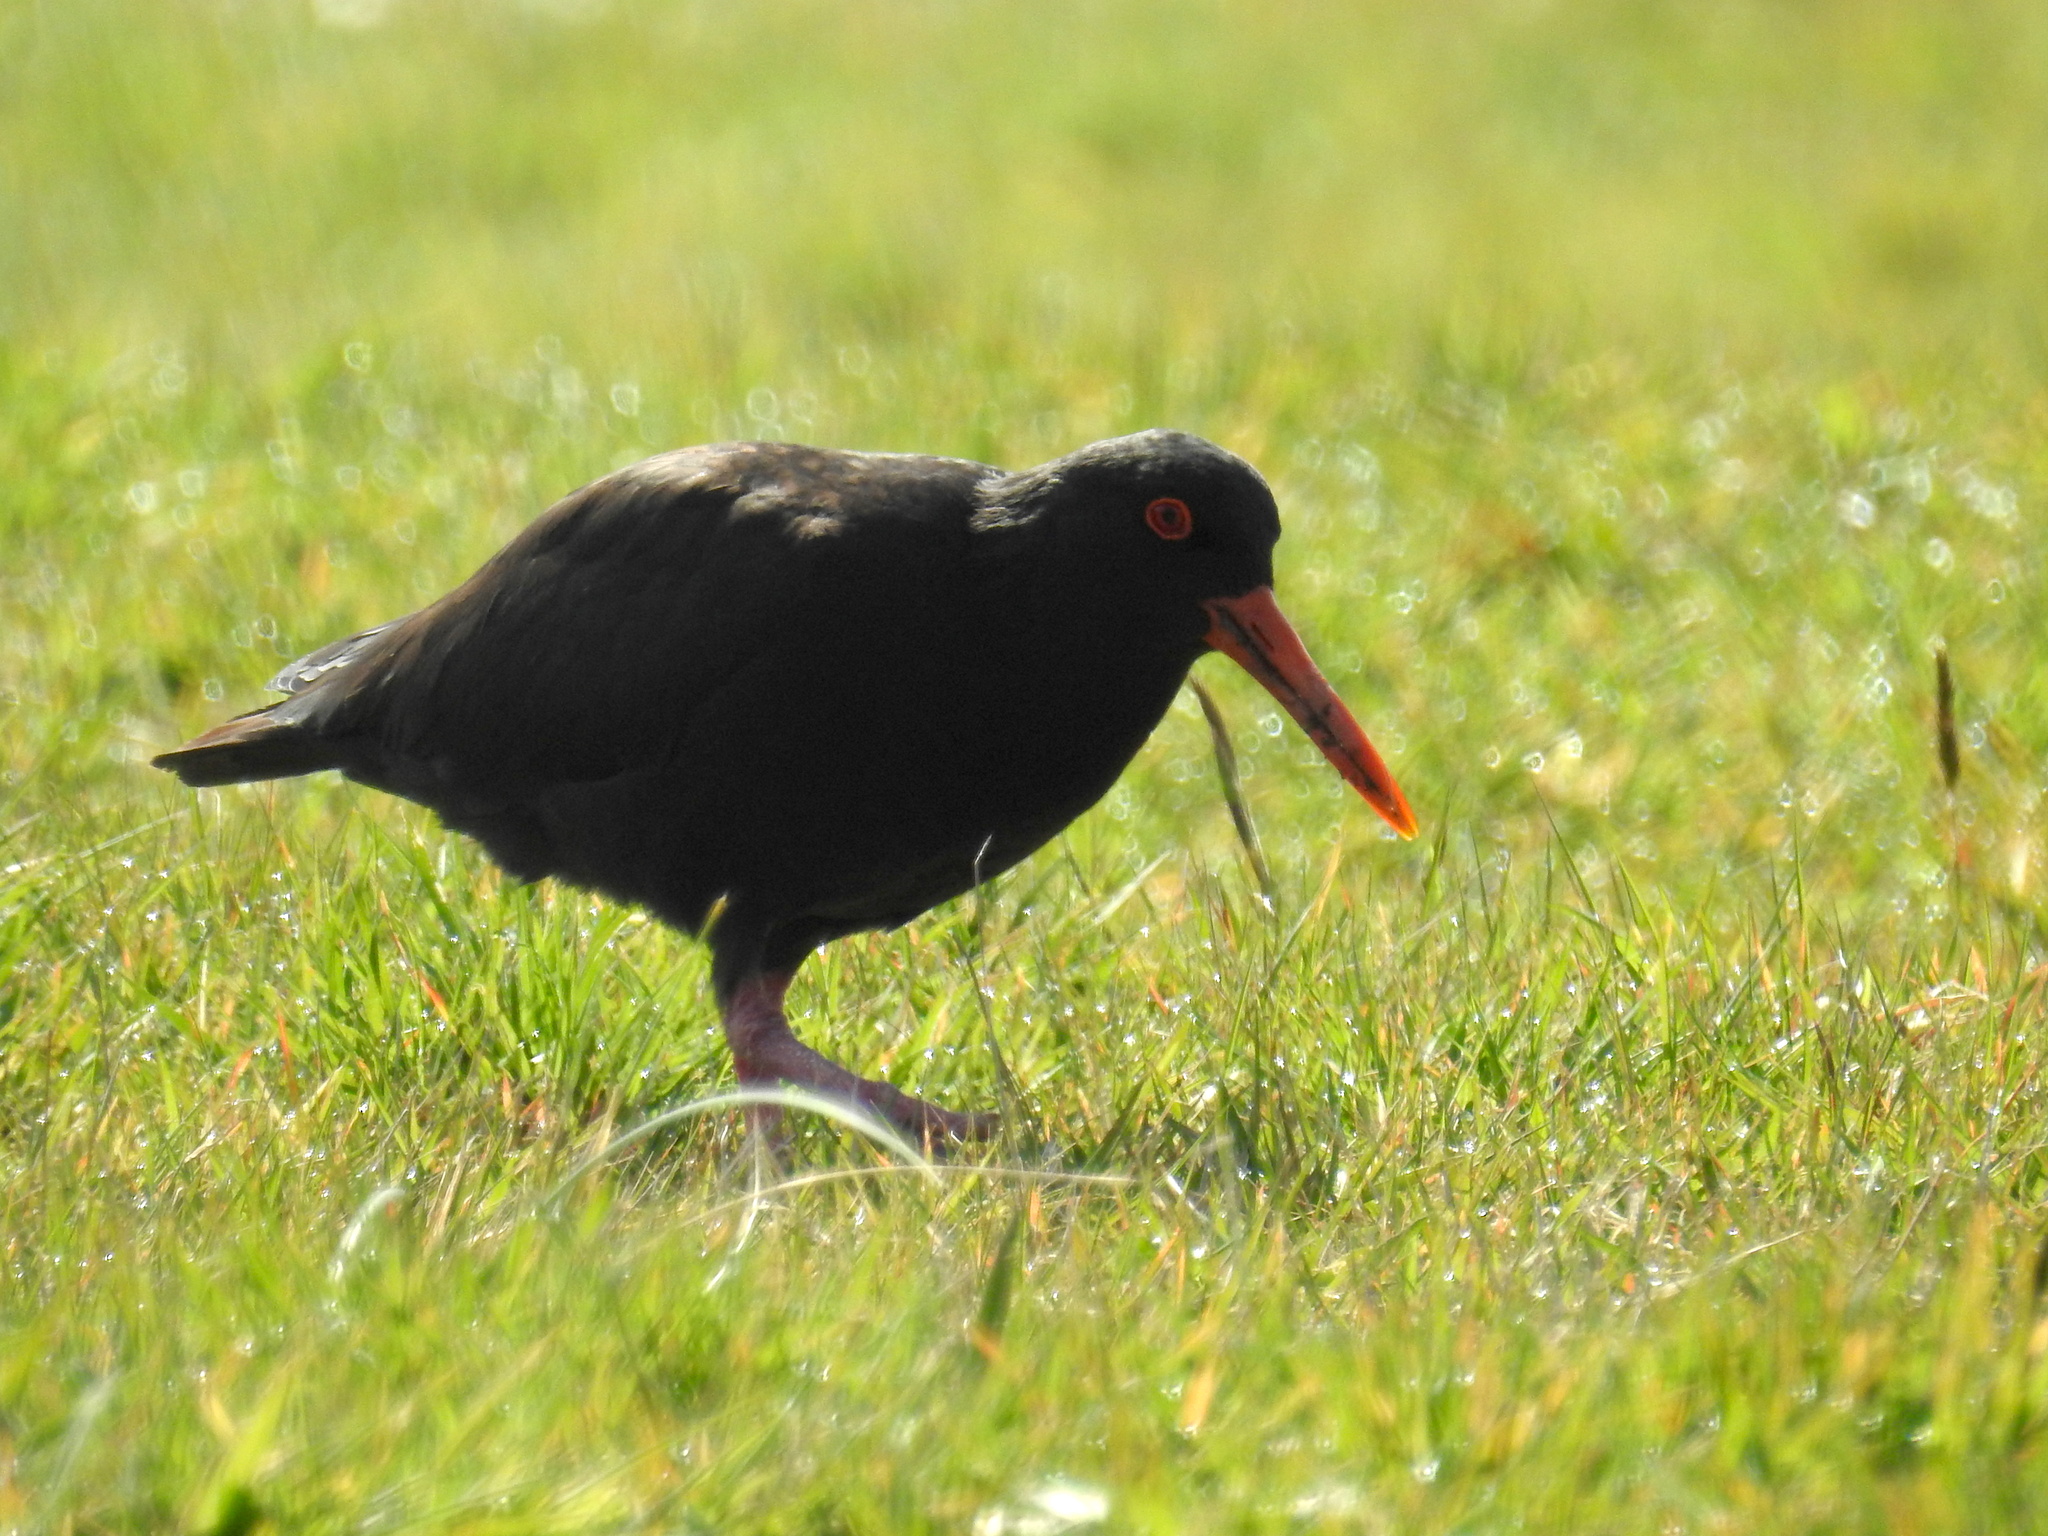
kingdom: Animalia
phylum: Chordata
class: Aves
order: Charadriiformes
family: Haematopodidae
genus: Haematopus
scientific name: Haematopus unicolor
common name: Variable oystercatcher
